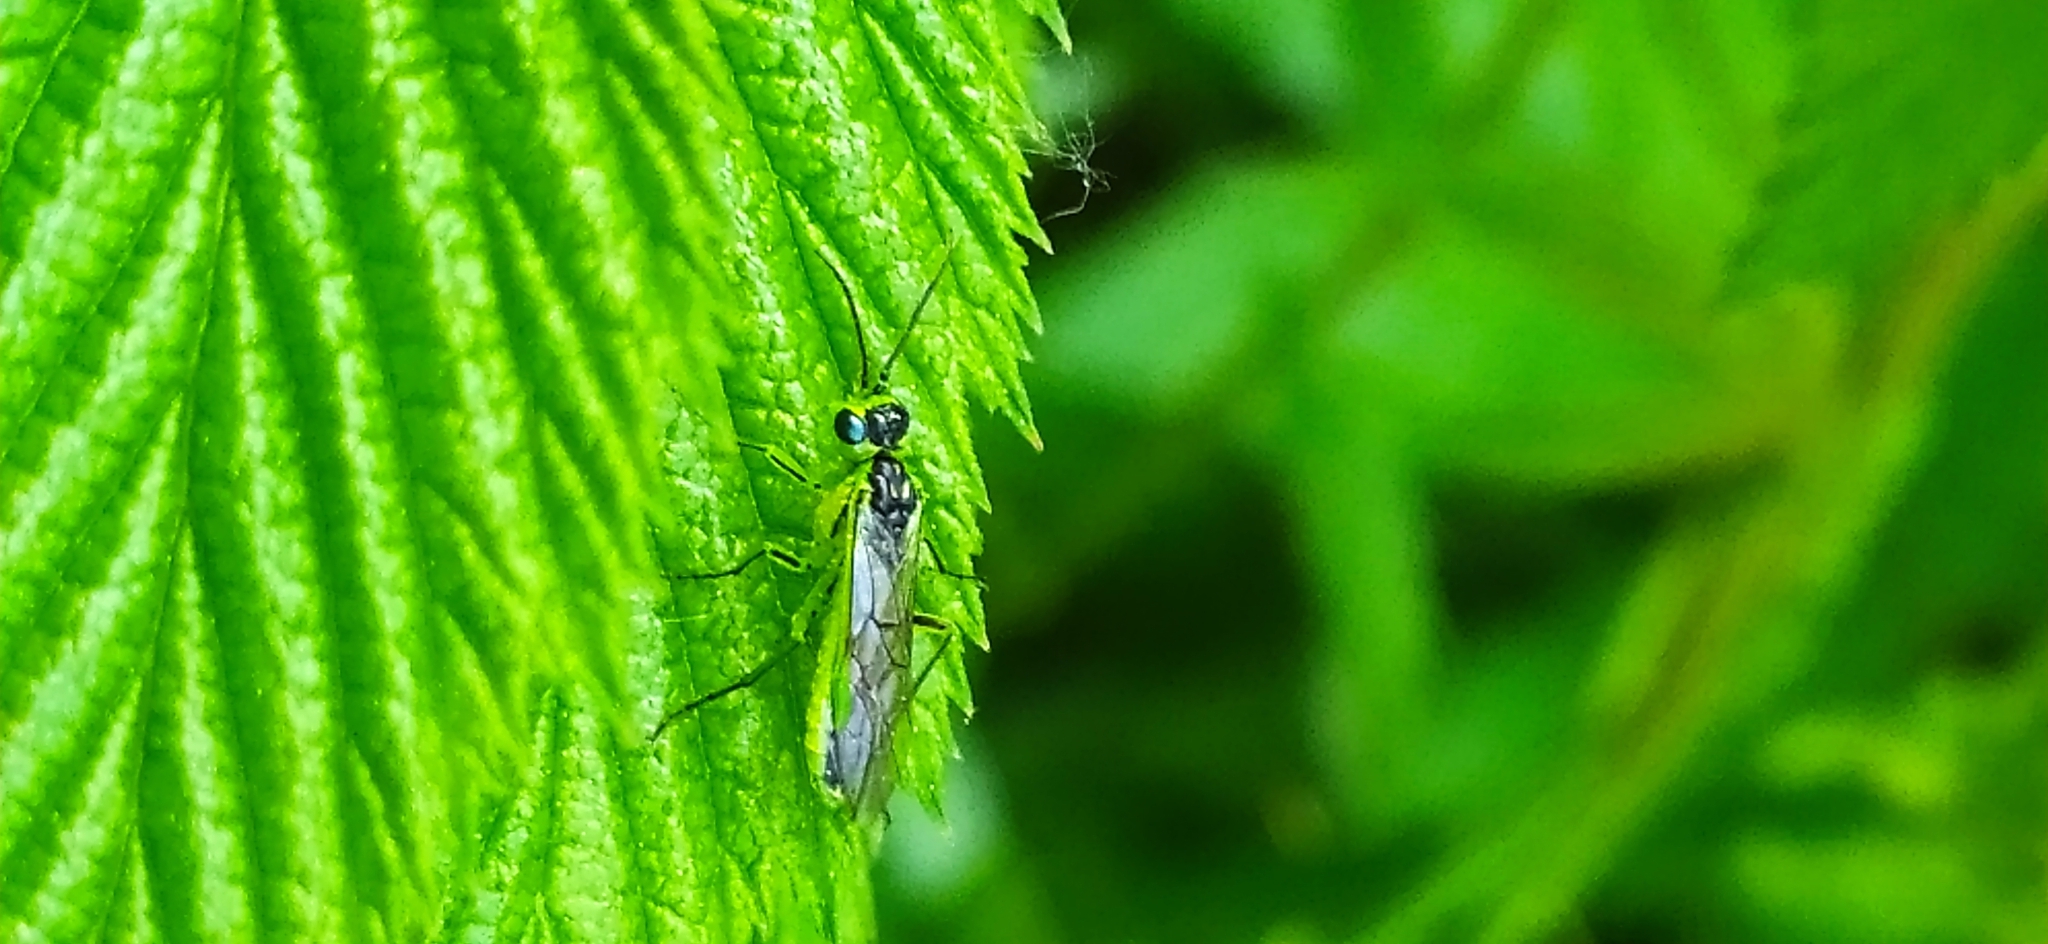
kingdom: Animalia
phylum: Arthropoda
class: Insecta
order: Hymenoptera
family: Tenthredinidae
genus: Rhogogaster
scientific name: Rhogogaster scalaris
